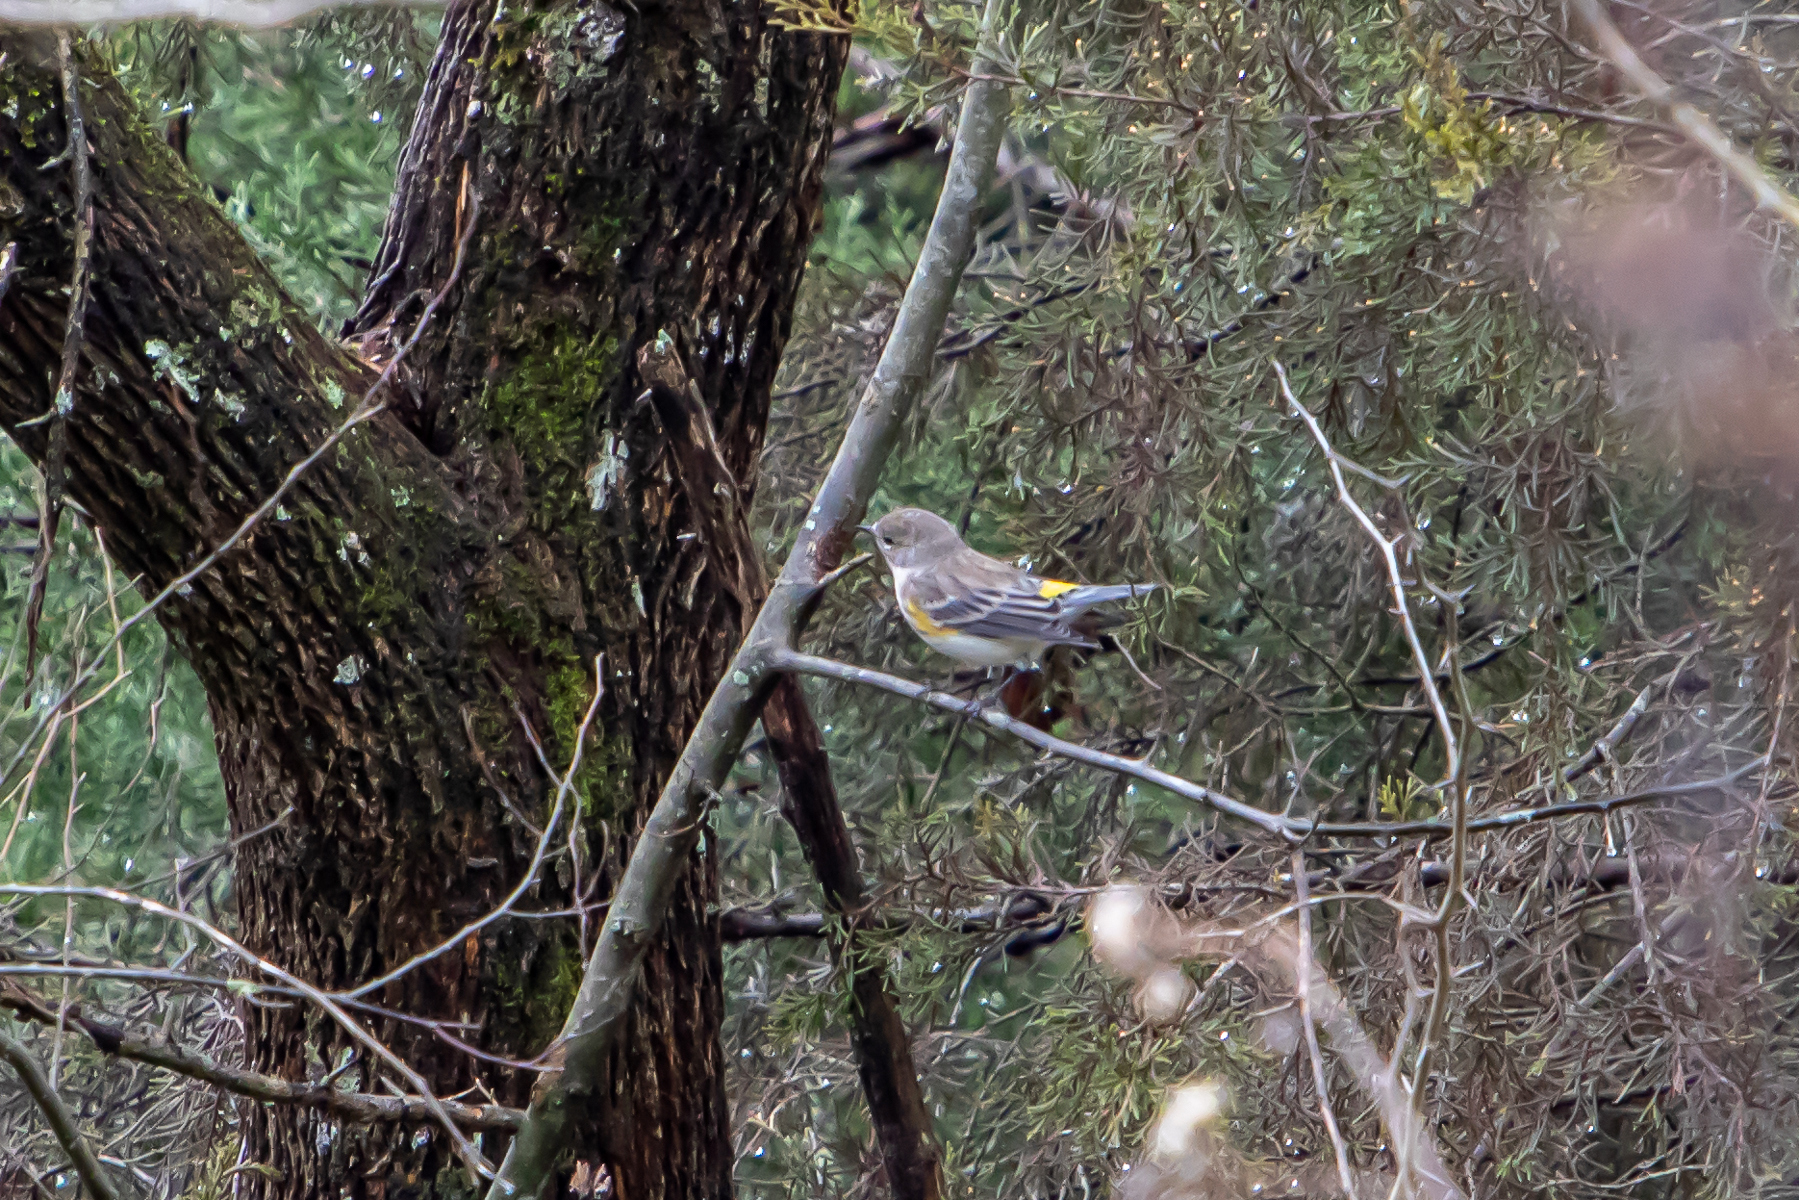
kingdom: Animalia
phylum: Chordata
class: Aves
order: Passeriformes
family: Parulidae
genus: Setophaga
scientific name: Setophaga coronata
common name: Myrtle warbler
